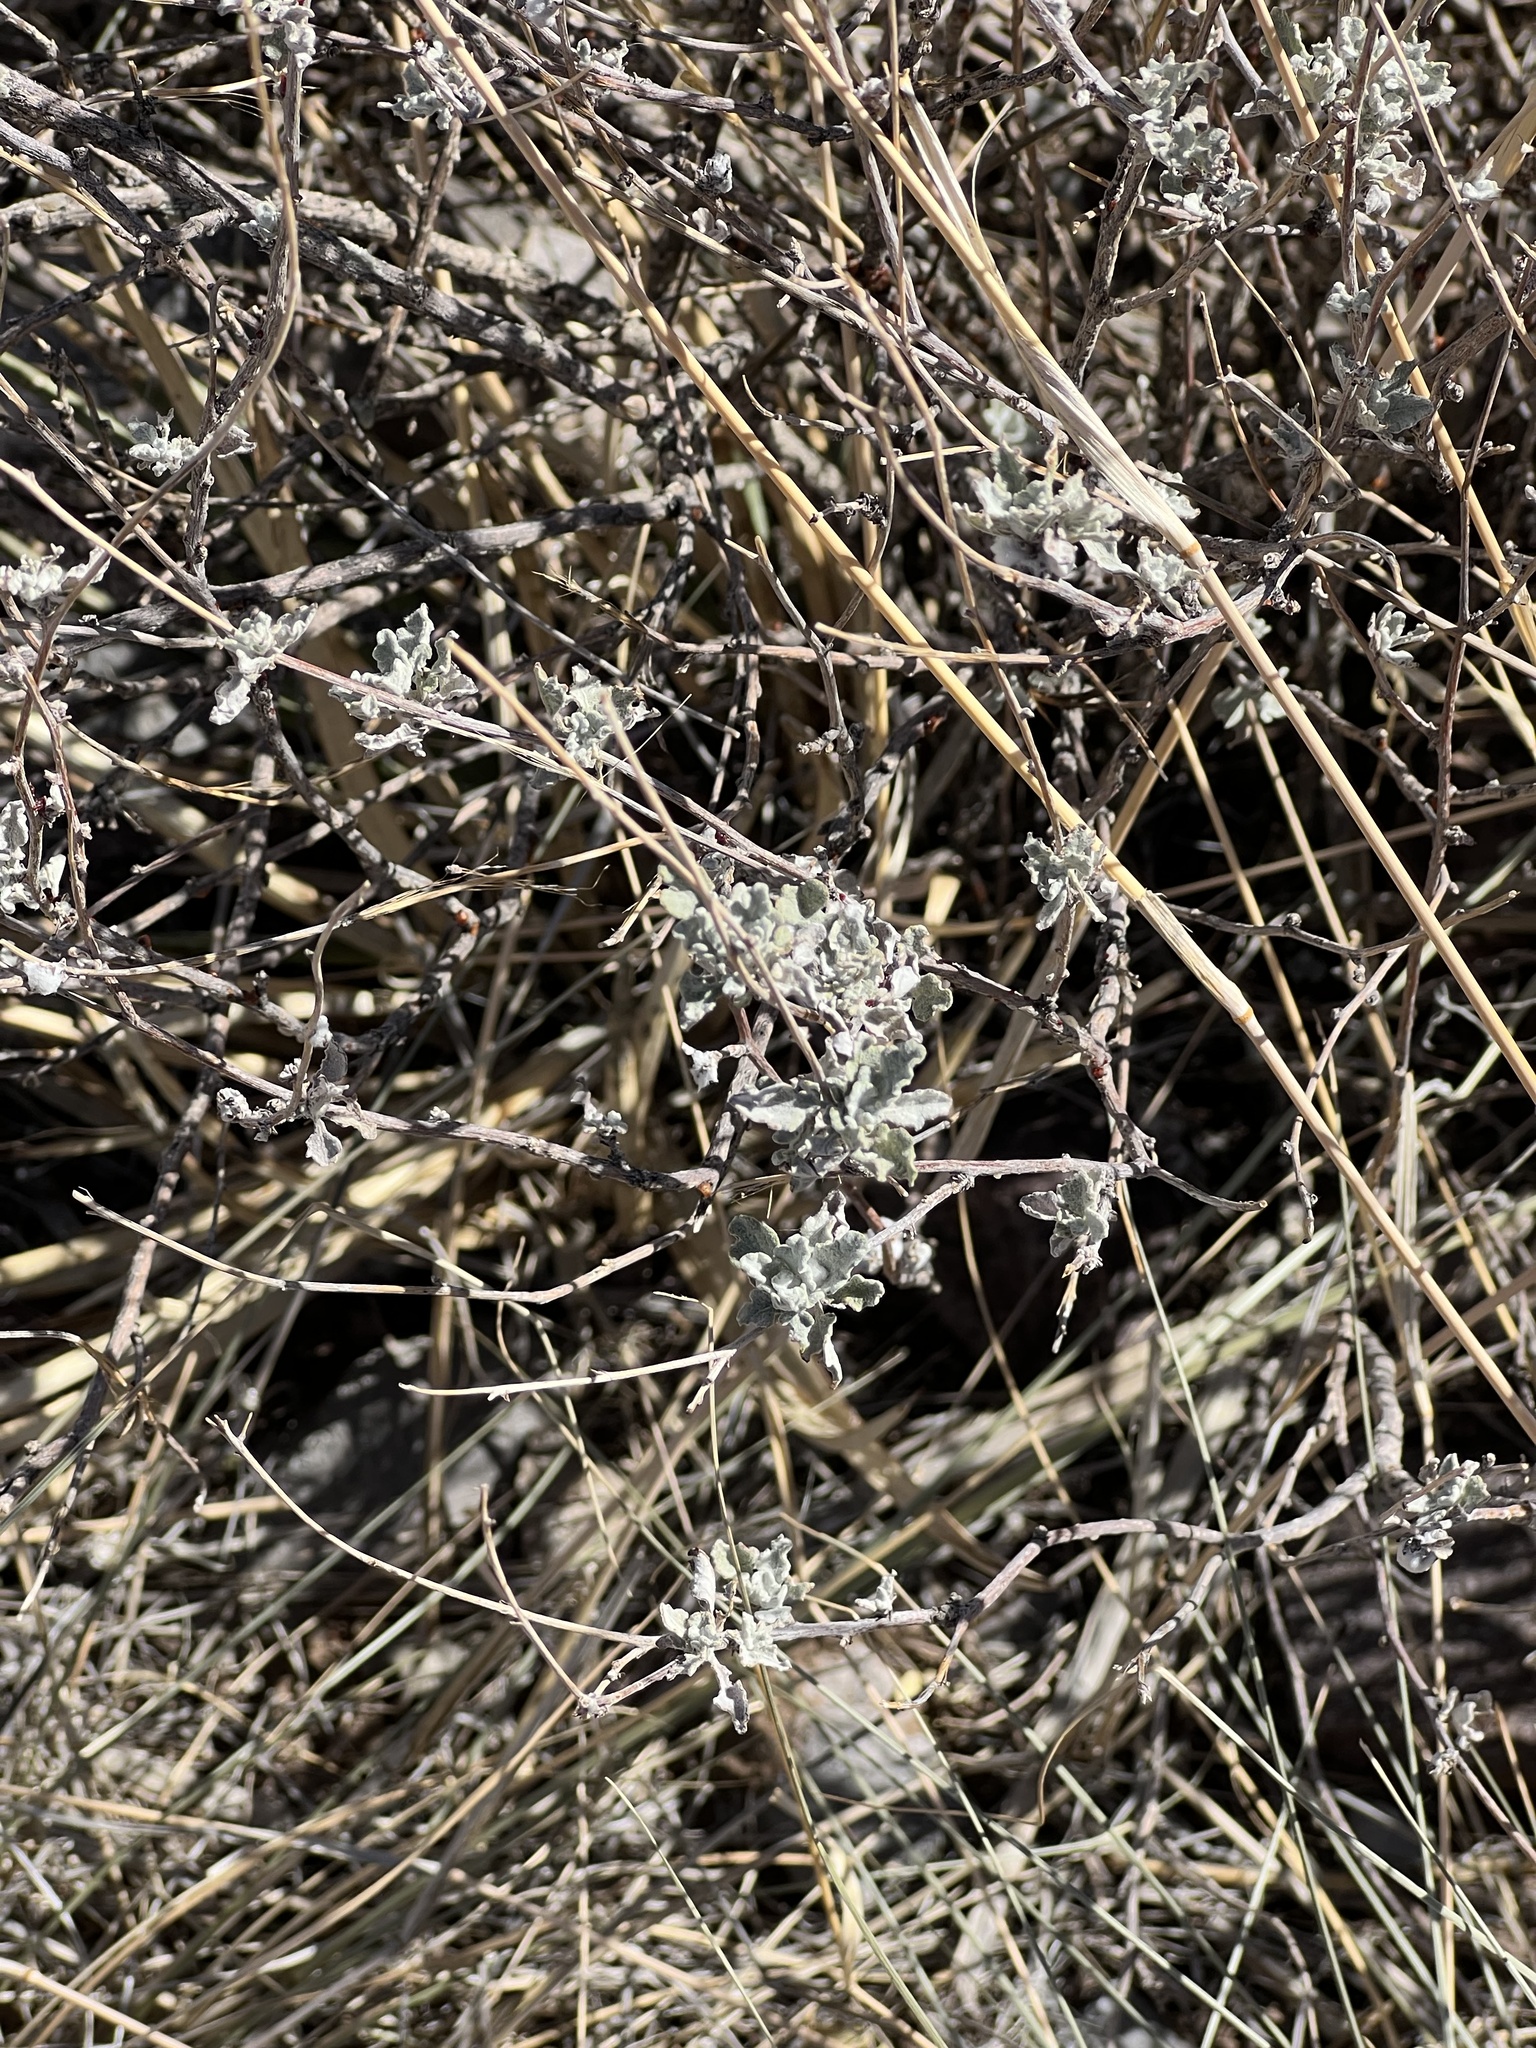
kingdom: Plantae
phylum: Tracheophyta
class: Magnoliopsida
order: Asterales
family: Asteraceae
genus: Parthenium
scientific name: Parthenium incanum
